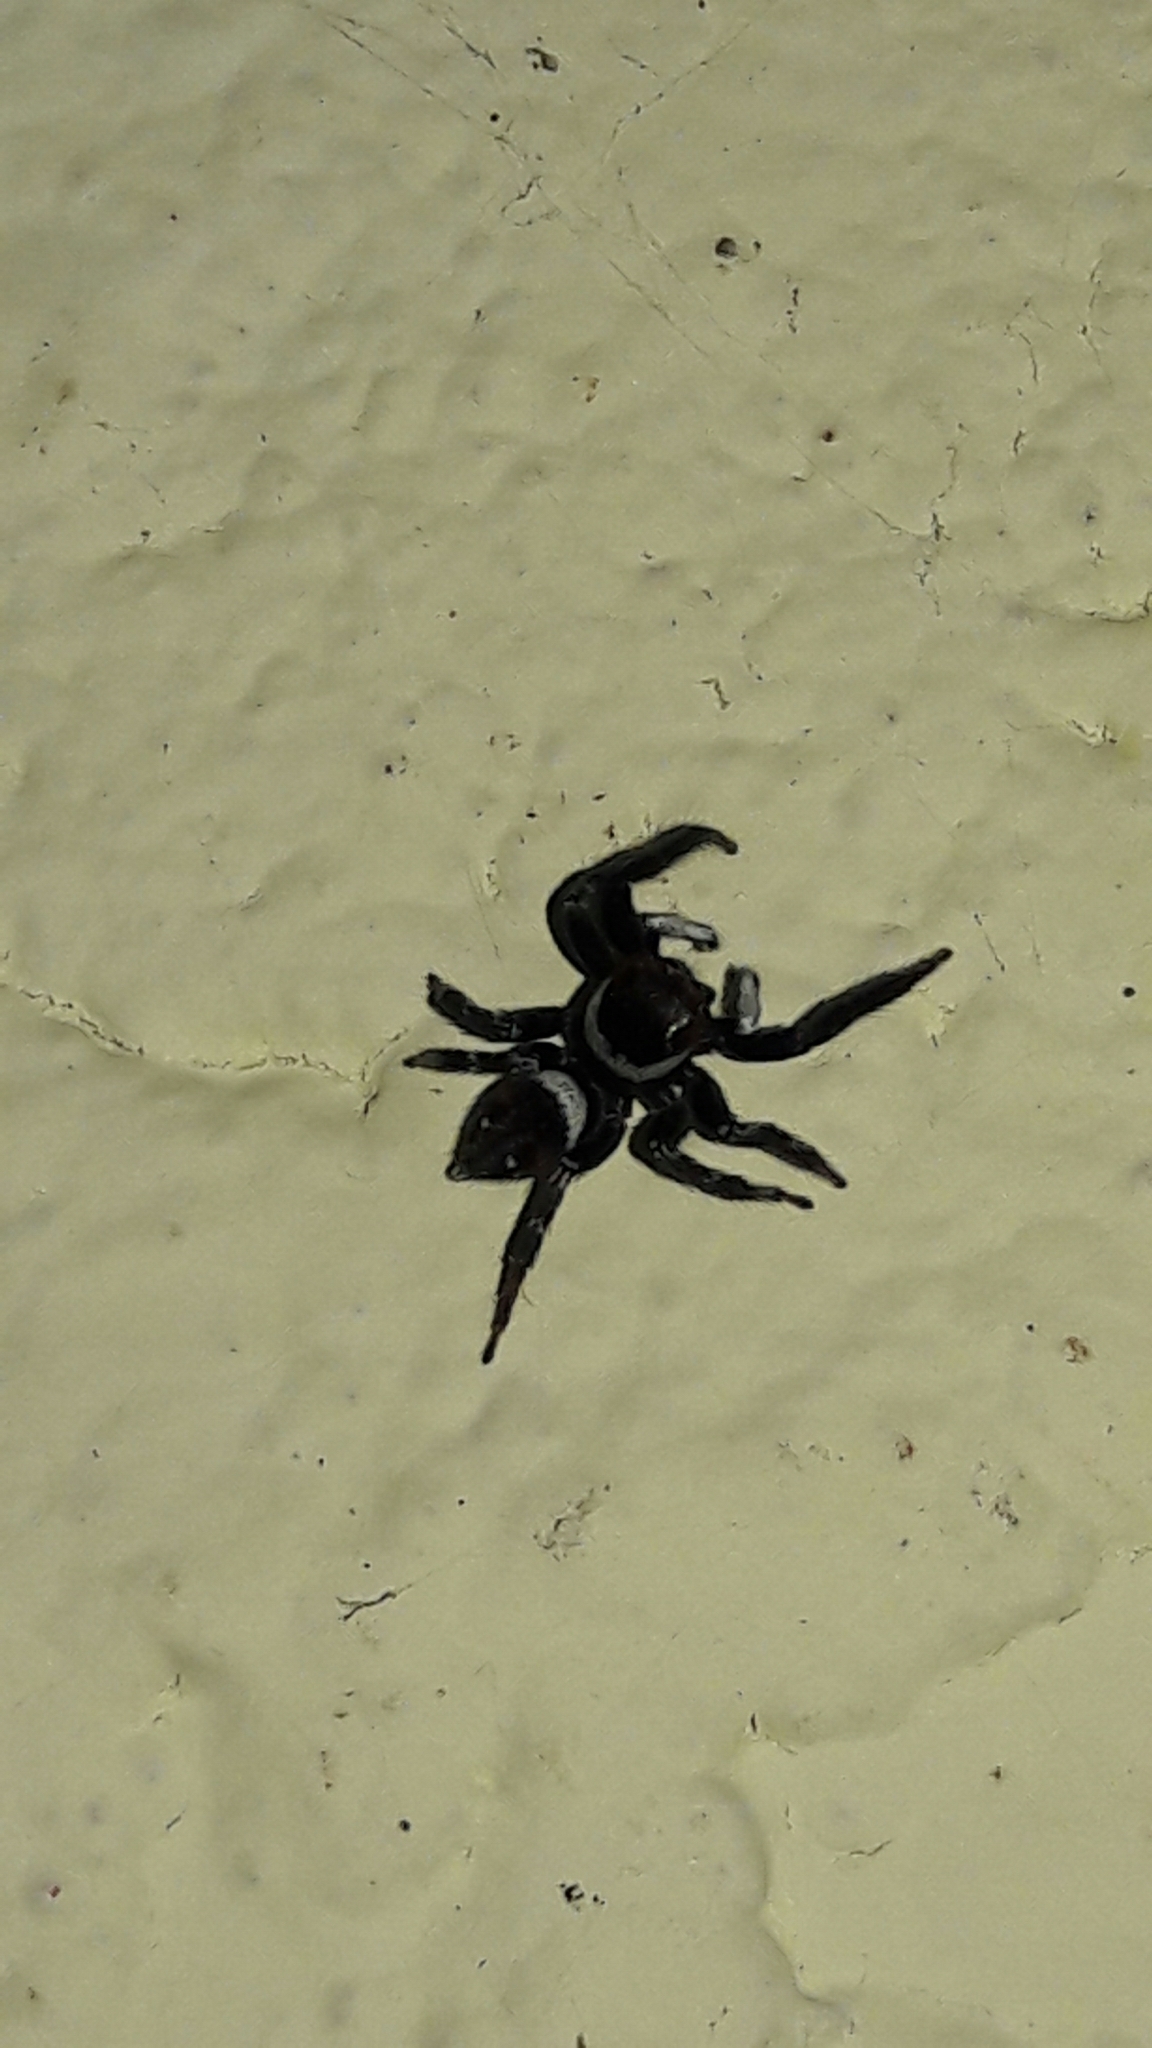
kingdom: Animalia
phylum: Arthropoda
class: Arachnida
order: Araneae
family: Salticidae
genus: Hasarius
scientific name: Hasarius adansoni
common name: Jumping spider
